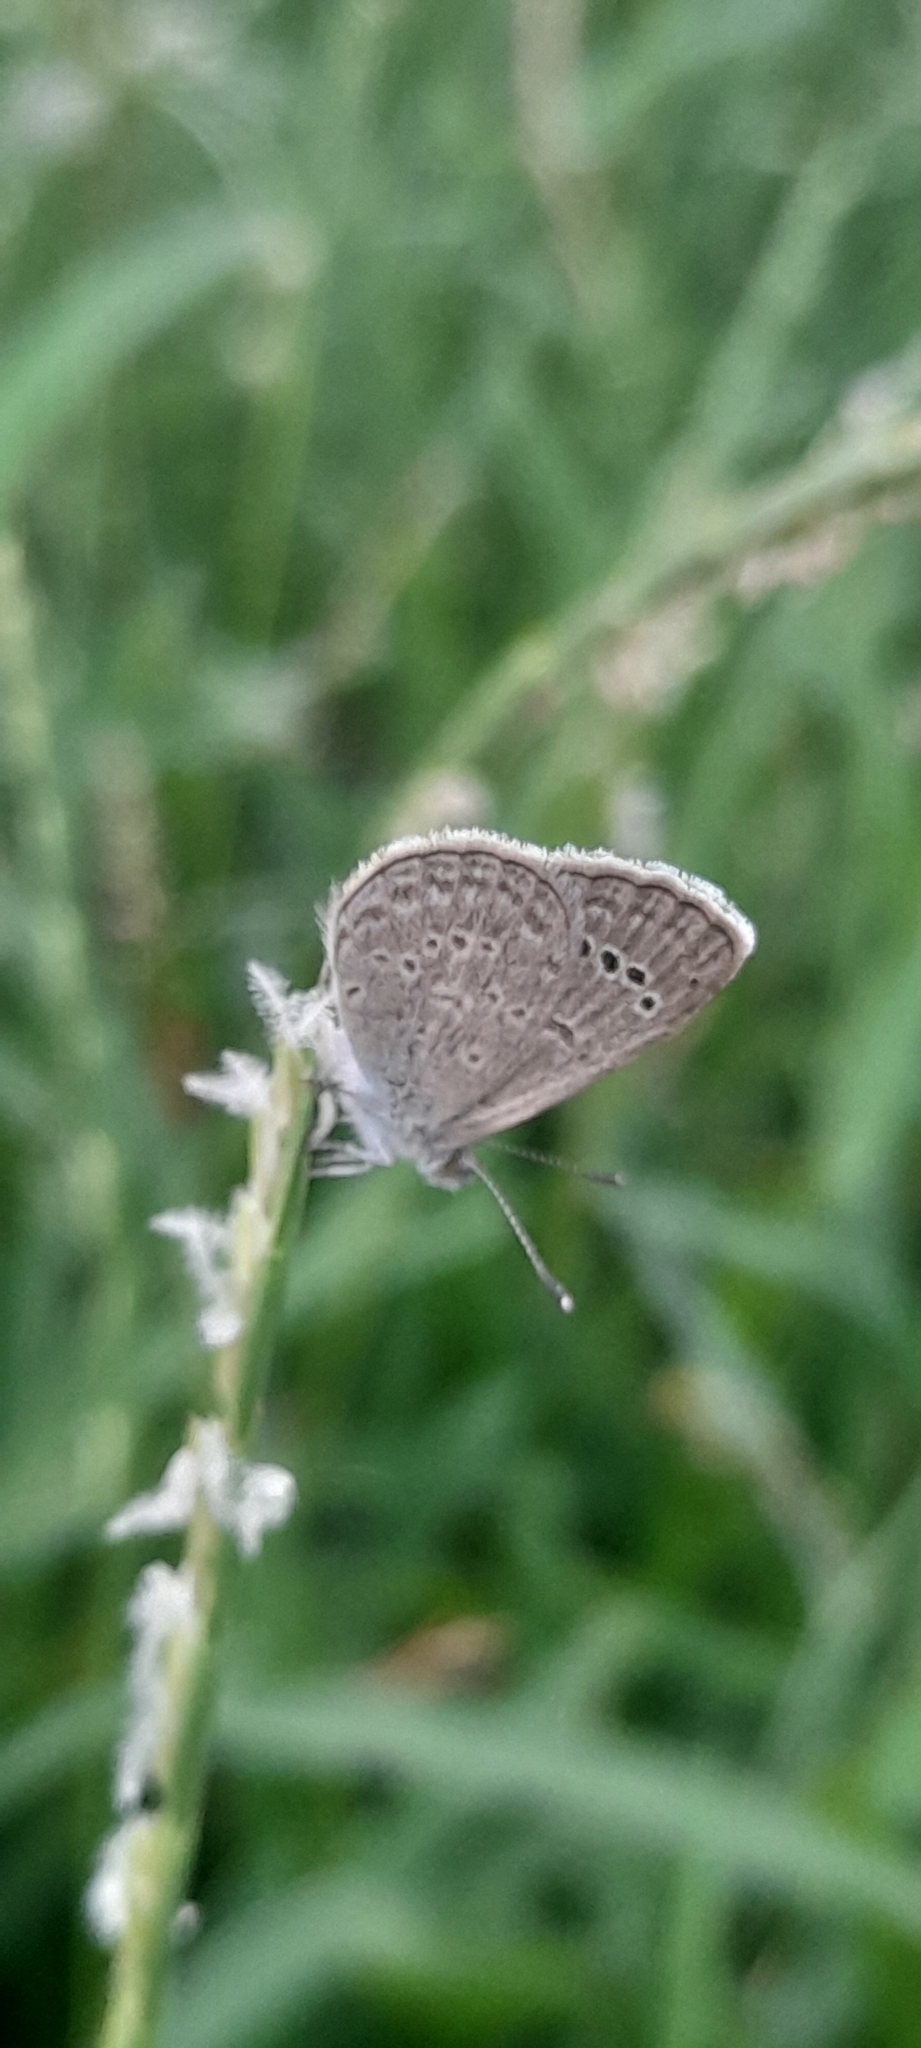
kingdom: Animalia
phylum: Arthropoda
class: Insecta
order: Lepidoptera
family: Lycaenidae
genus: Zizina
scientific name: Zizina otis
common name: Lesser grass blue
